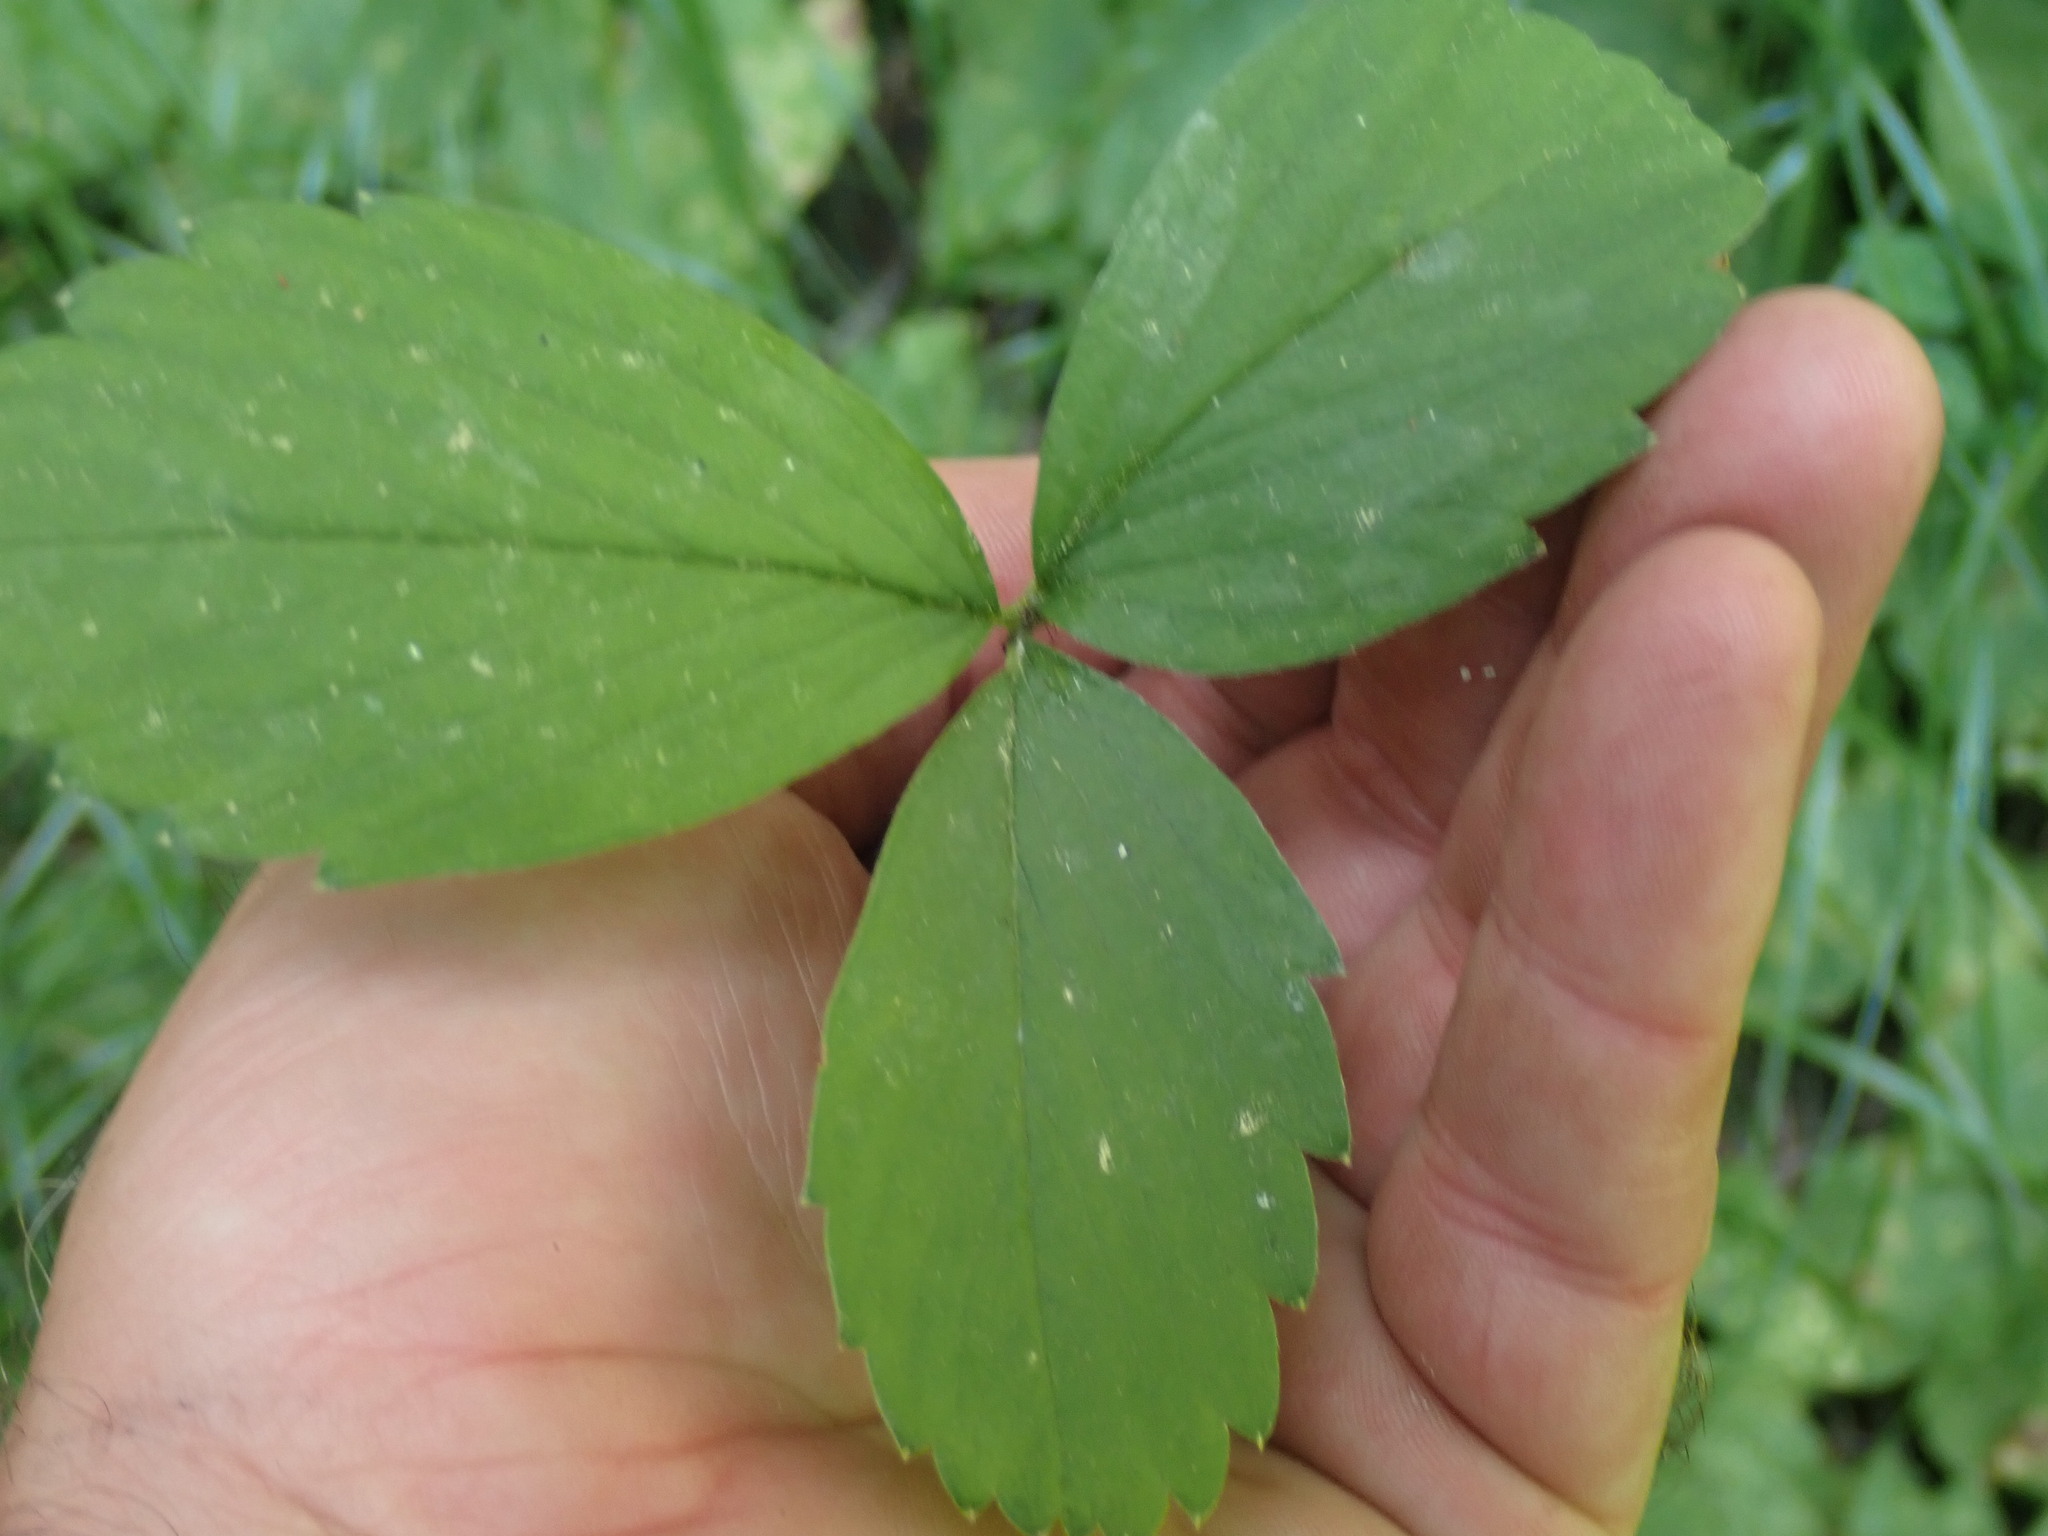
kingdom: Plantae
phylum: Tracheophyta
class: Magnoliopsida
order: Rosales
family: Rosaceae
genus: Fragaria
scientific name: Fragaria virginiana
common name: Thickleaved wild strawberry
